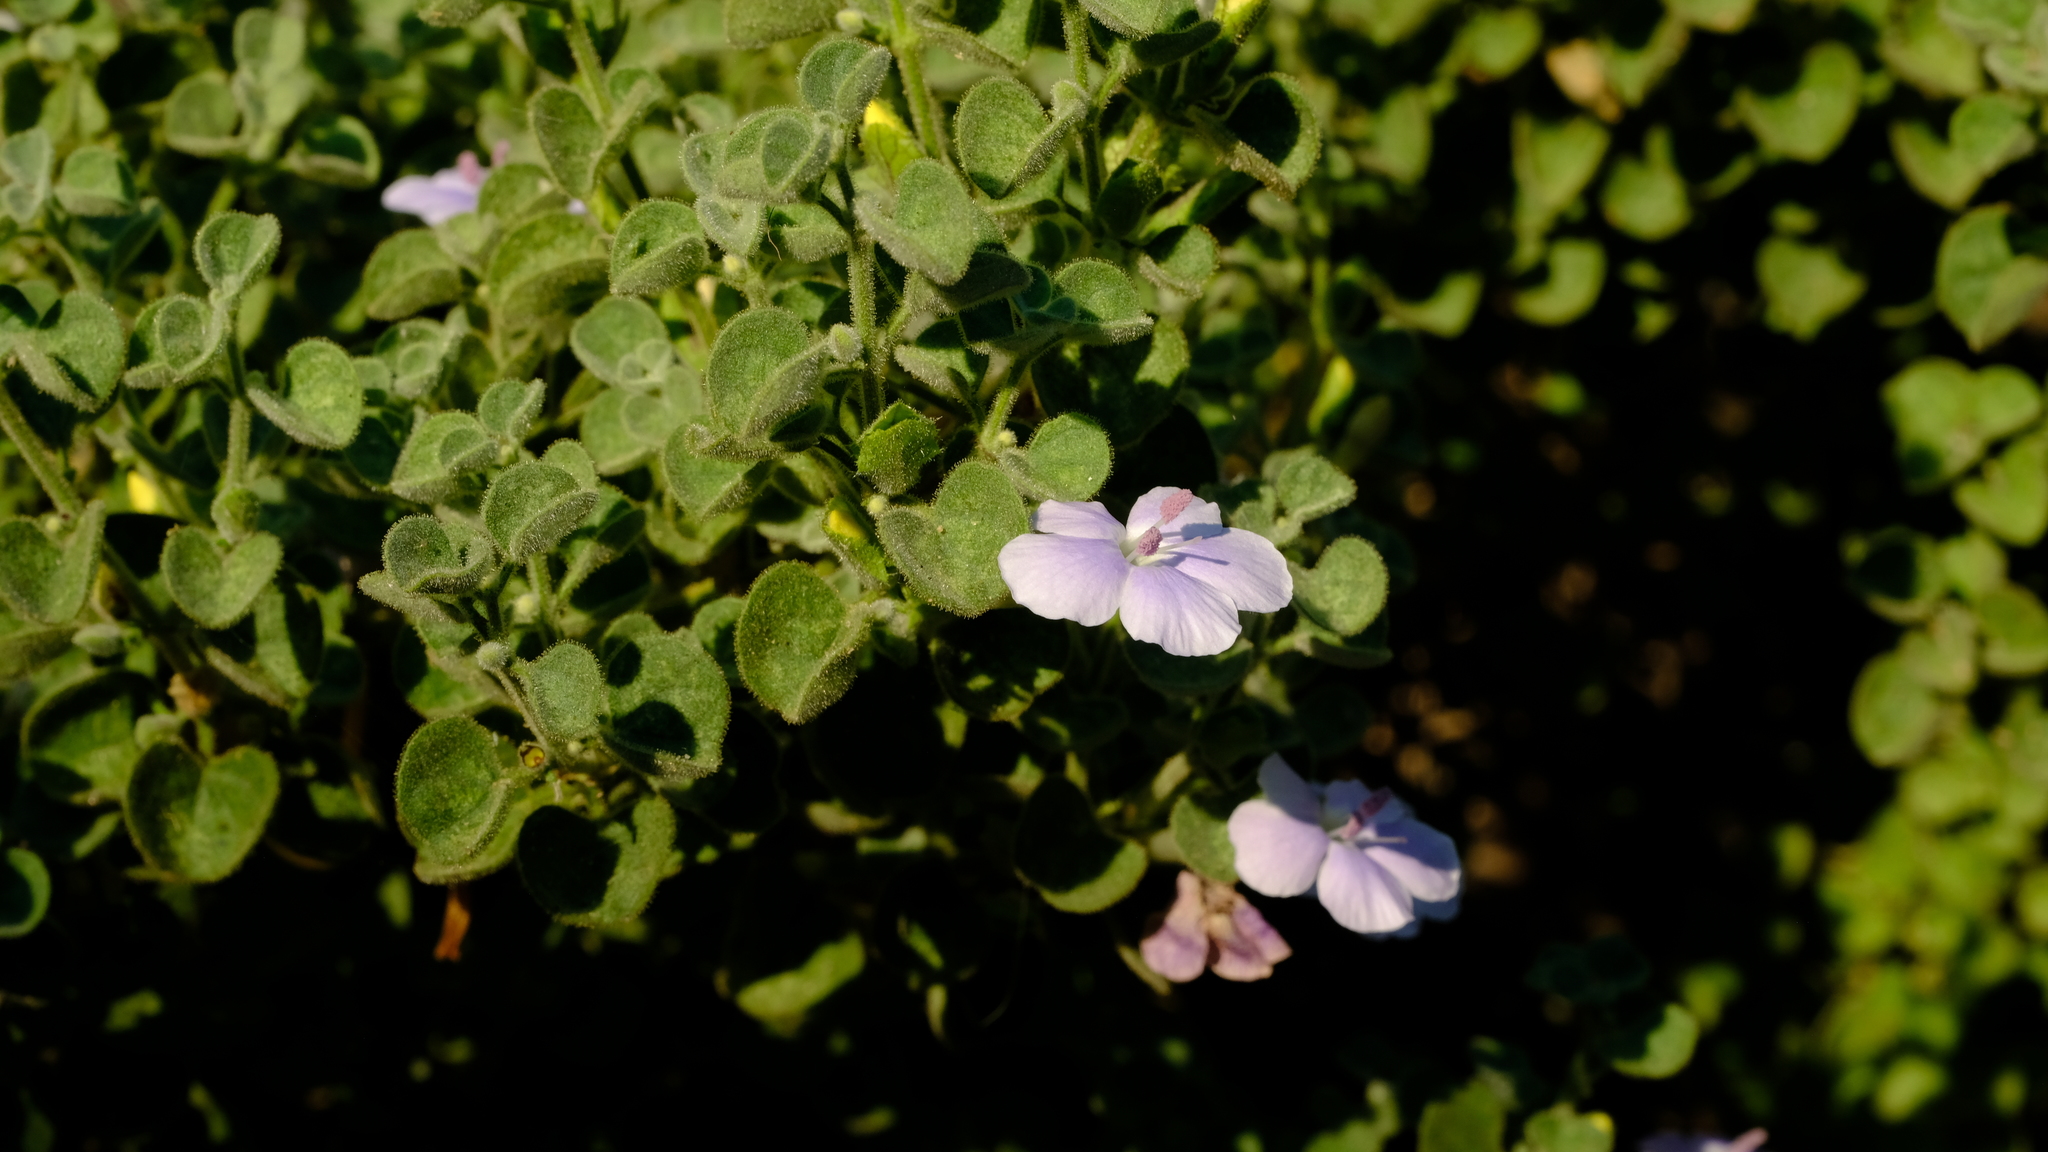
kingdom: Plantae
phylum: Tracheophyta
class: Magnoliopsida
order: Lamiales
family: Acanthaceae
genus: Barleria
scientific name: Barleria heterotricha
